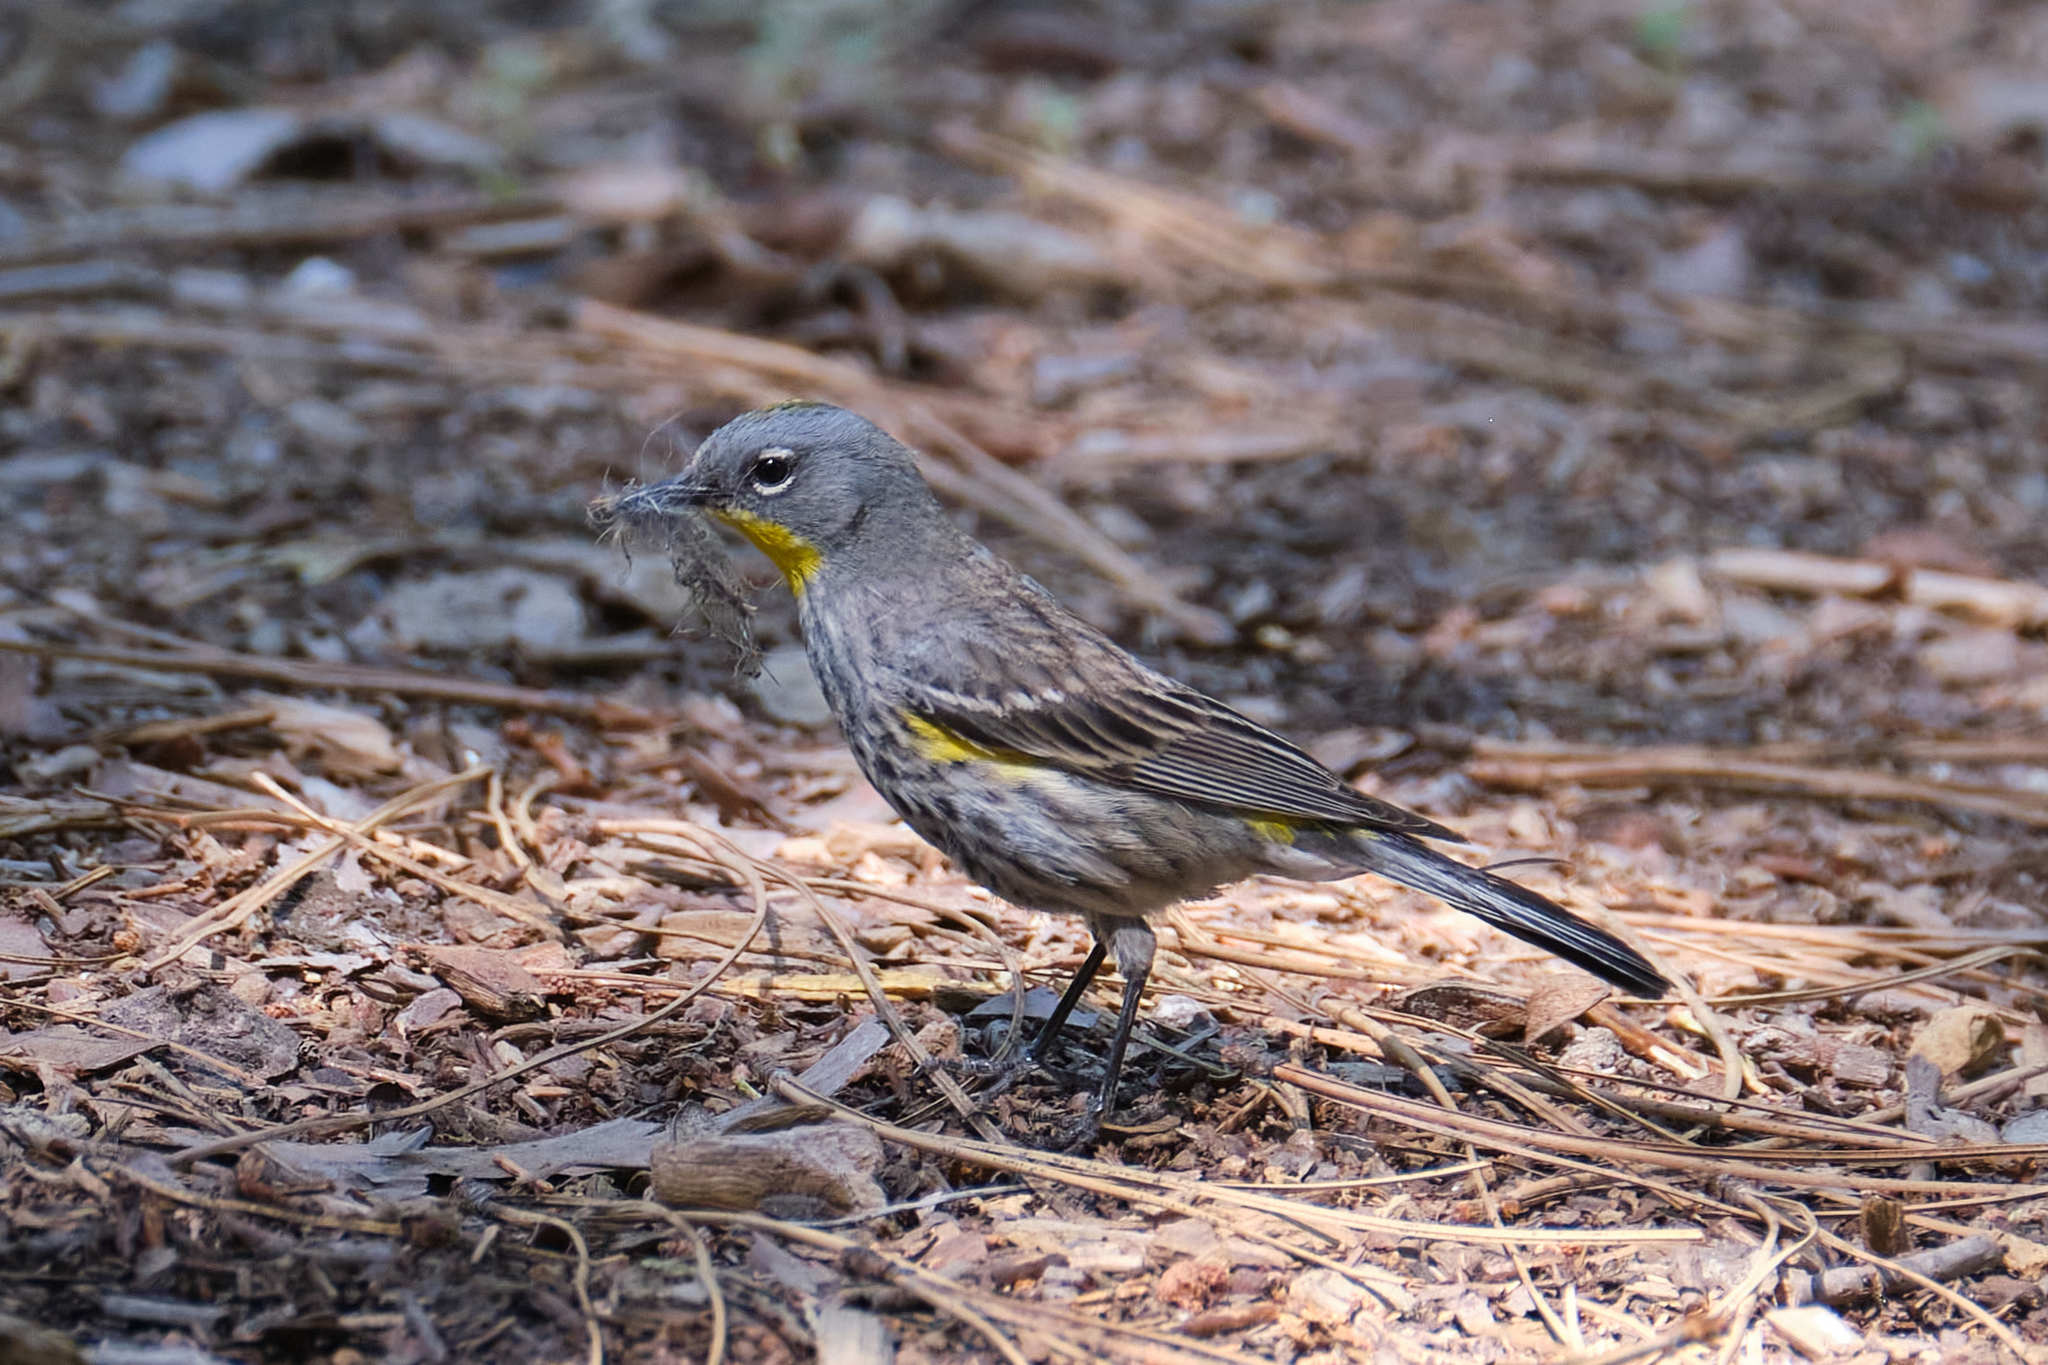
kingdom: Animalia
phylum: Chordata
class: Aves
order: Passeriformes
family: Parulidae
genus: Setophaga
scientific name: Setophaga coronata
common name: Myrtle warbler
